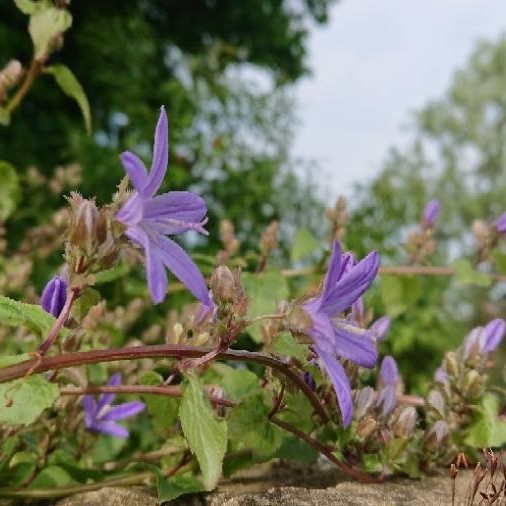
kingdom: Plantae
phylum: Tracheophyta
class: Magnoliopsida
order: Asterales
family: Campanulaceae
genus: Campanula
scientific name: Campanula poscharskyana
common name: Trailing bellflower
